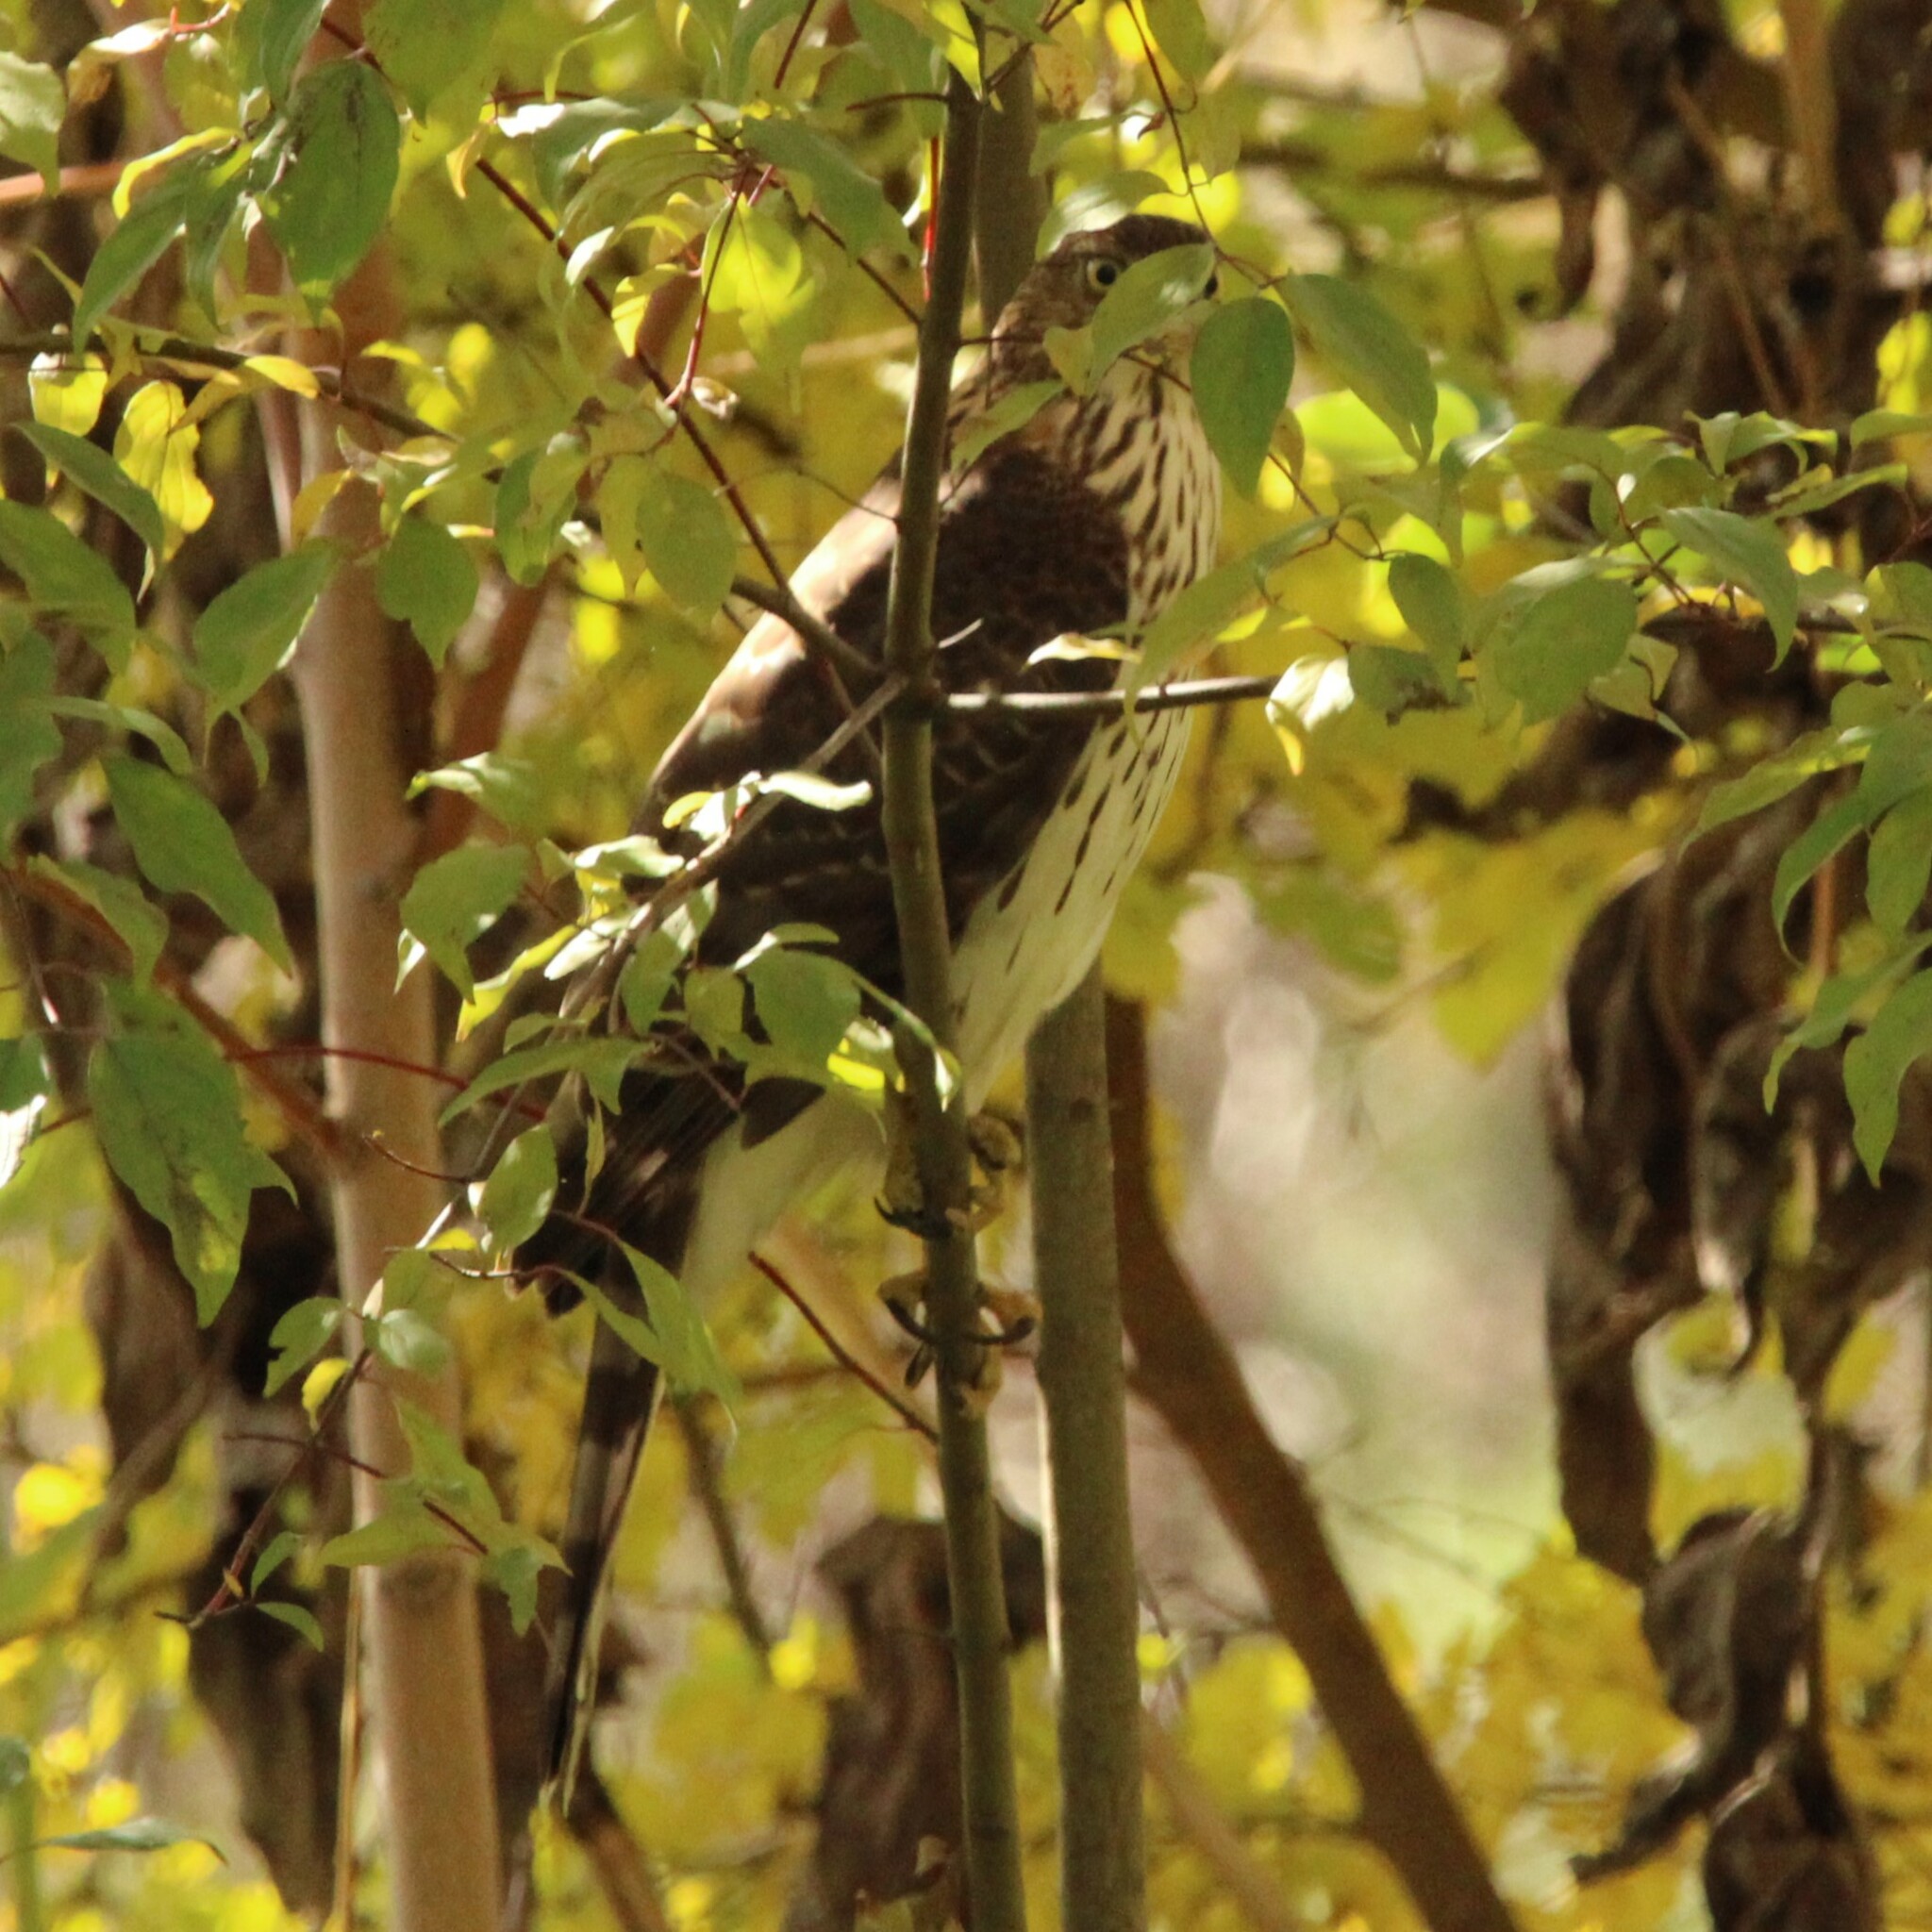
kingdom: Animalia
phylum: Chordata
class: Aves
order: Accipitriformes
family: Accipitridae
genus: Accipiter
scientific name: Accipiter cooperii
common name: Cooper's hawk
